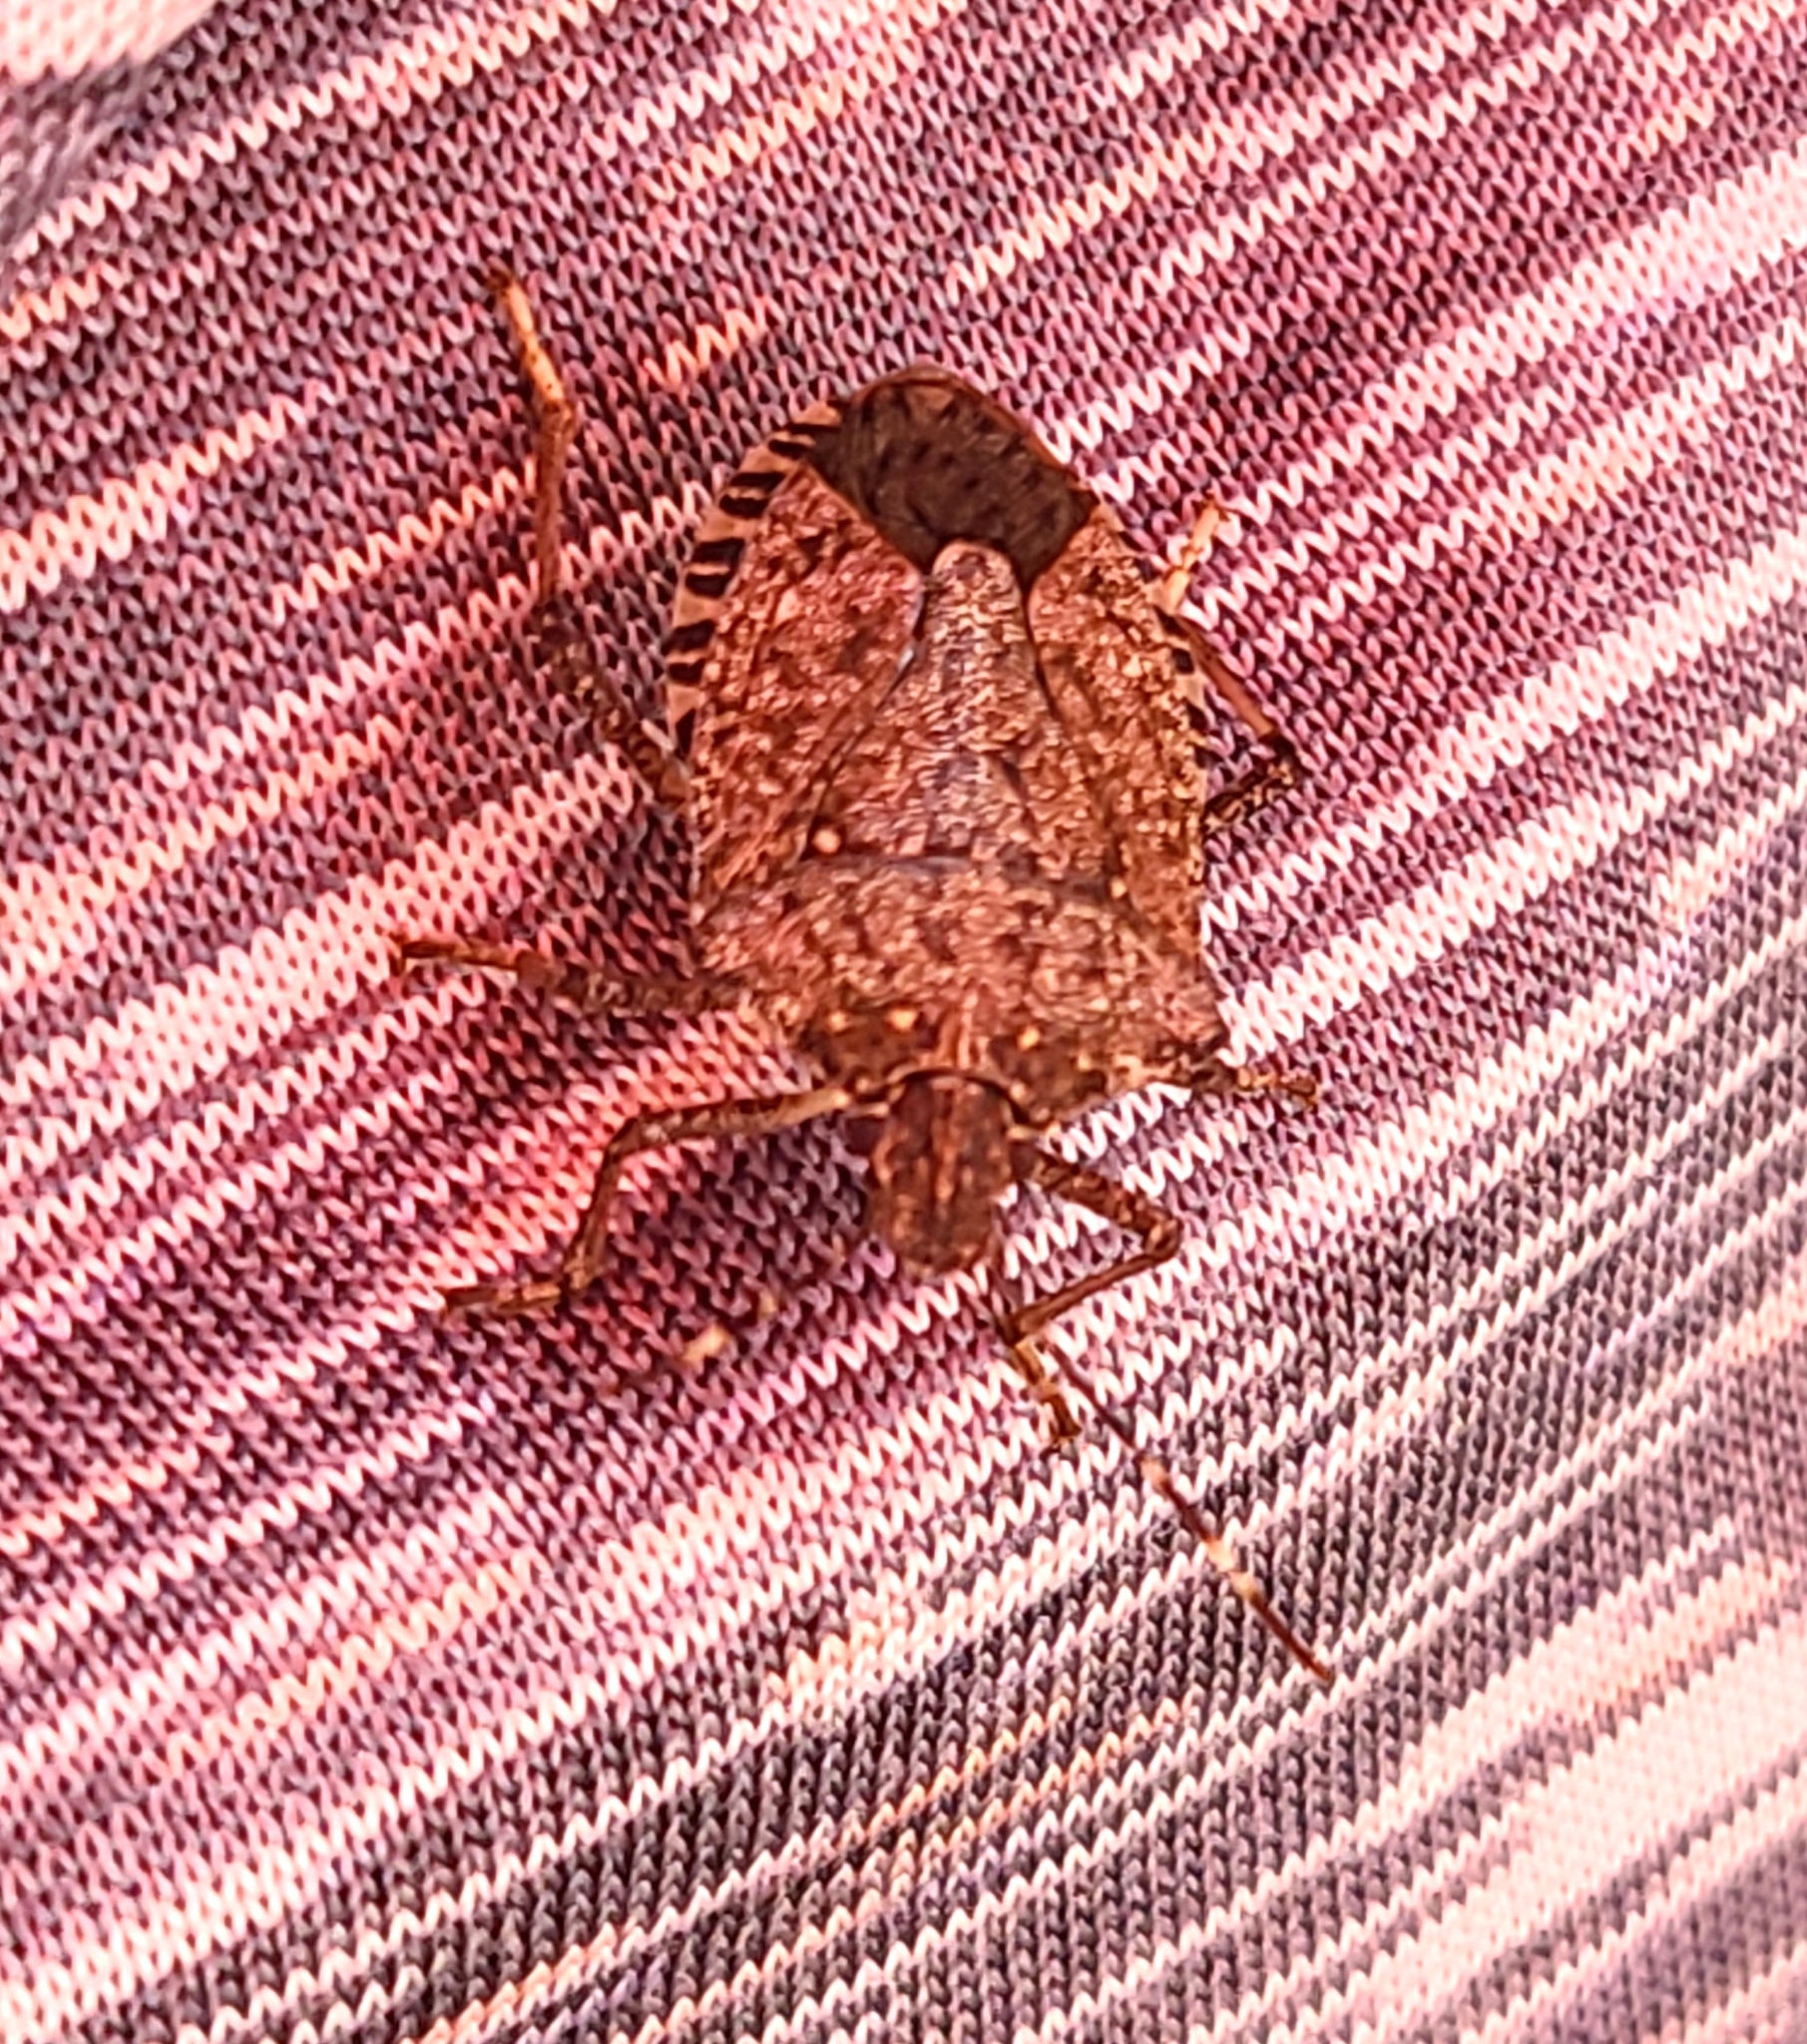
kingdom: Animalia
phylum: Arthropoda
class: Insecta
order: Hemiptera
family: Pentatomidae
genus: Halyomorpha
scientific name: Halyomorpha halys
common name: Brown marmorated stink bug
